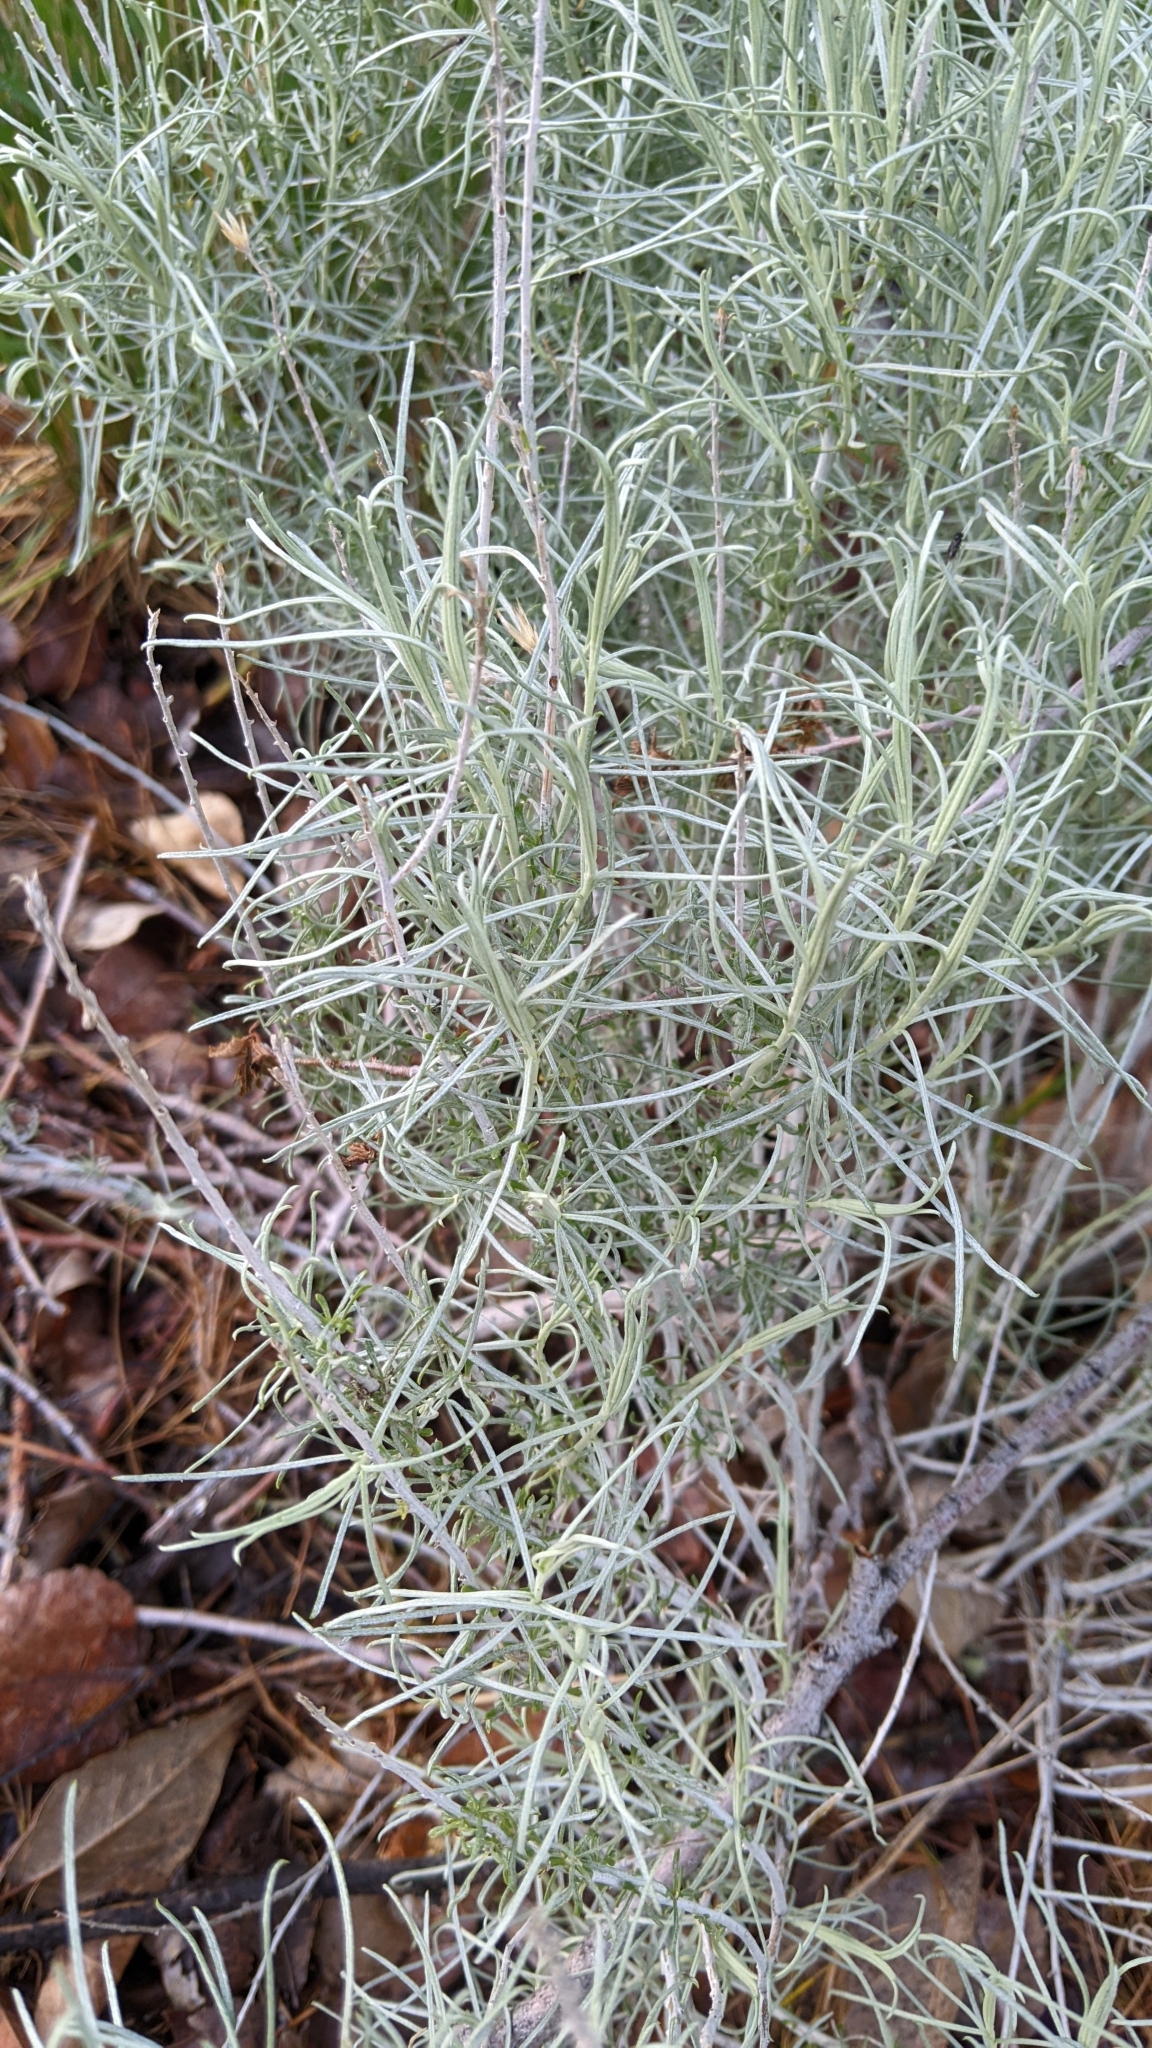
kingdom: Plantae
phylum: Tracheophyta
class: Magnoliopsida
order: Asterales
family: Asteraceae
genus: Ericameria
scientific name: Ericameria nauseosa
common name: Rubber rabbitbrush
